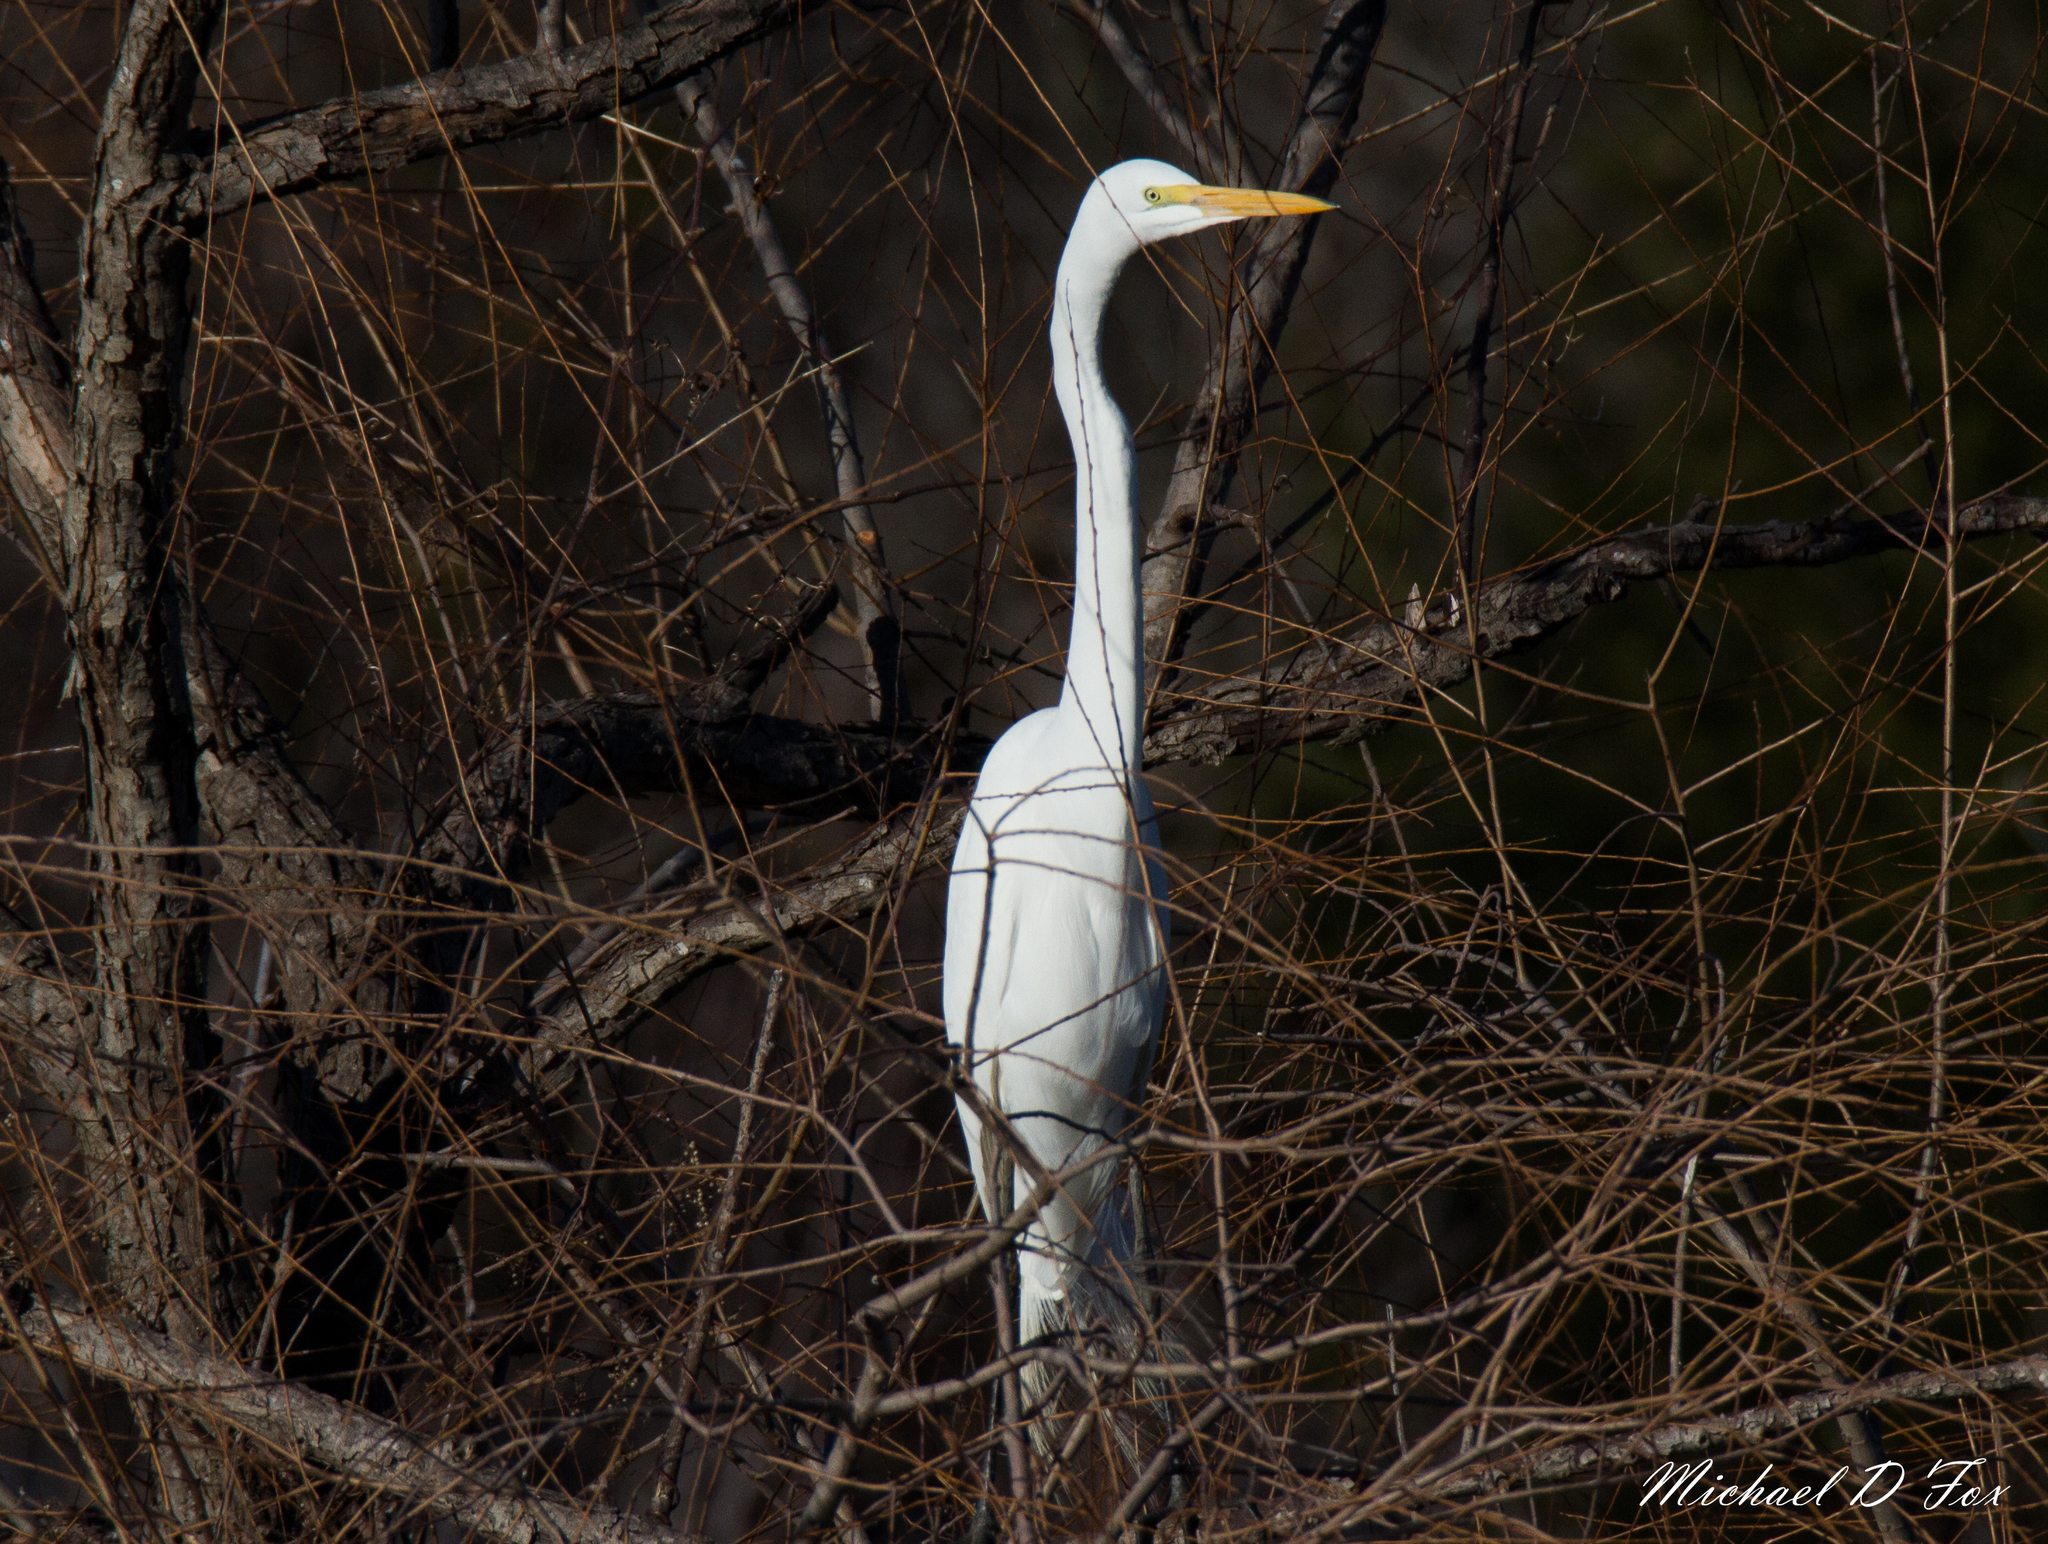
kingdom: Animalia
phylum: Chordata
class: Aves
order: Pelecaniformes
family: Ardeidae
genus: Ardea
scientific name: Ardea alba
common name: Great egret
